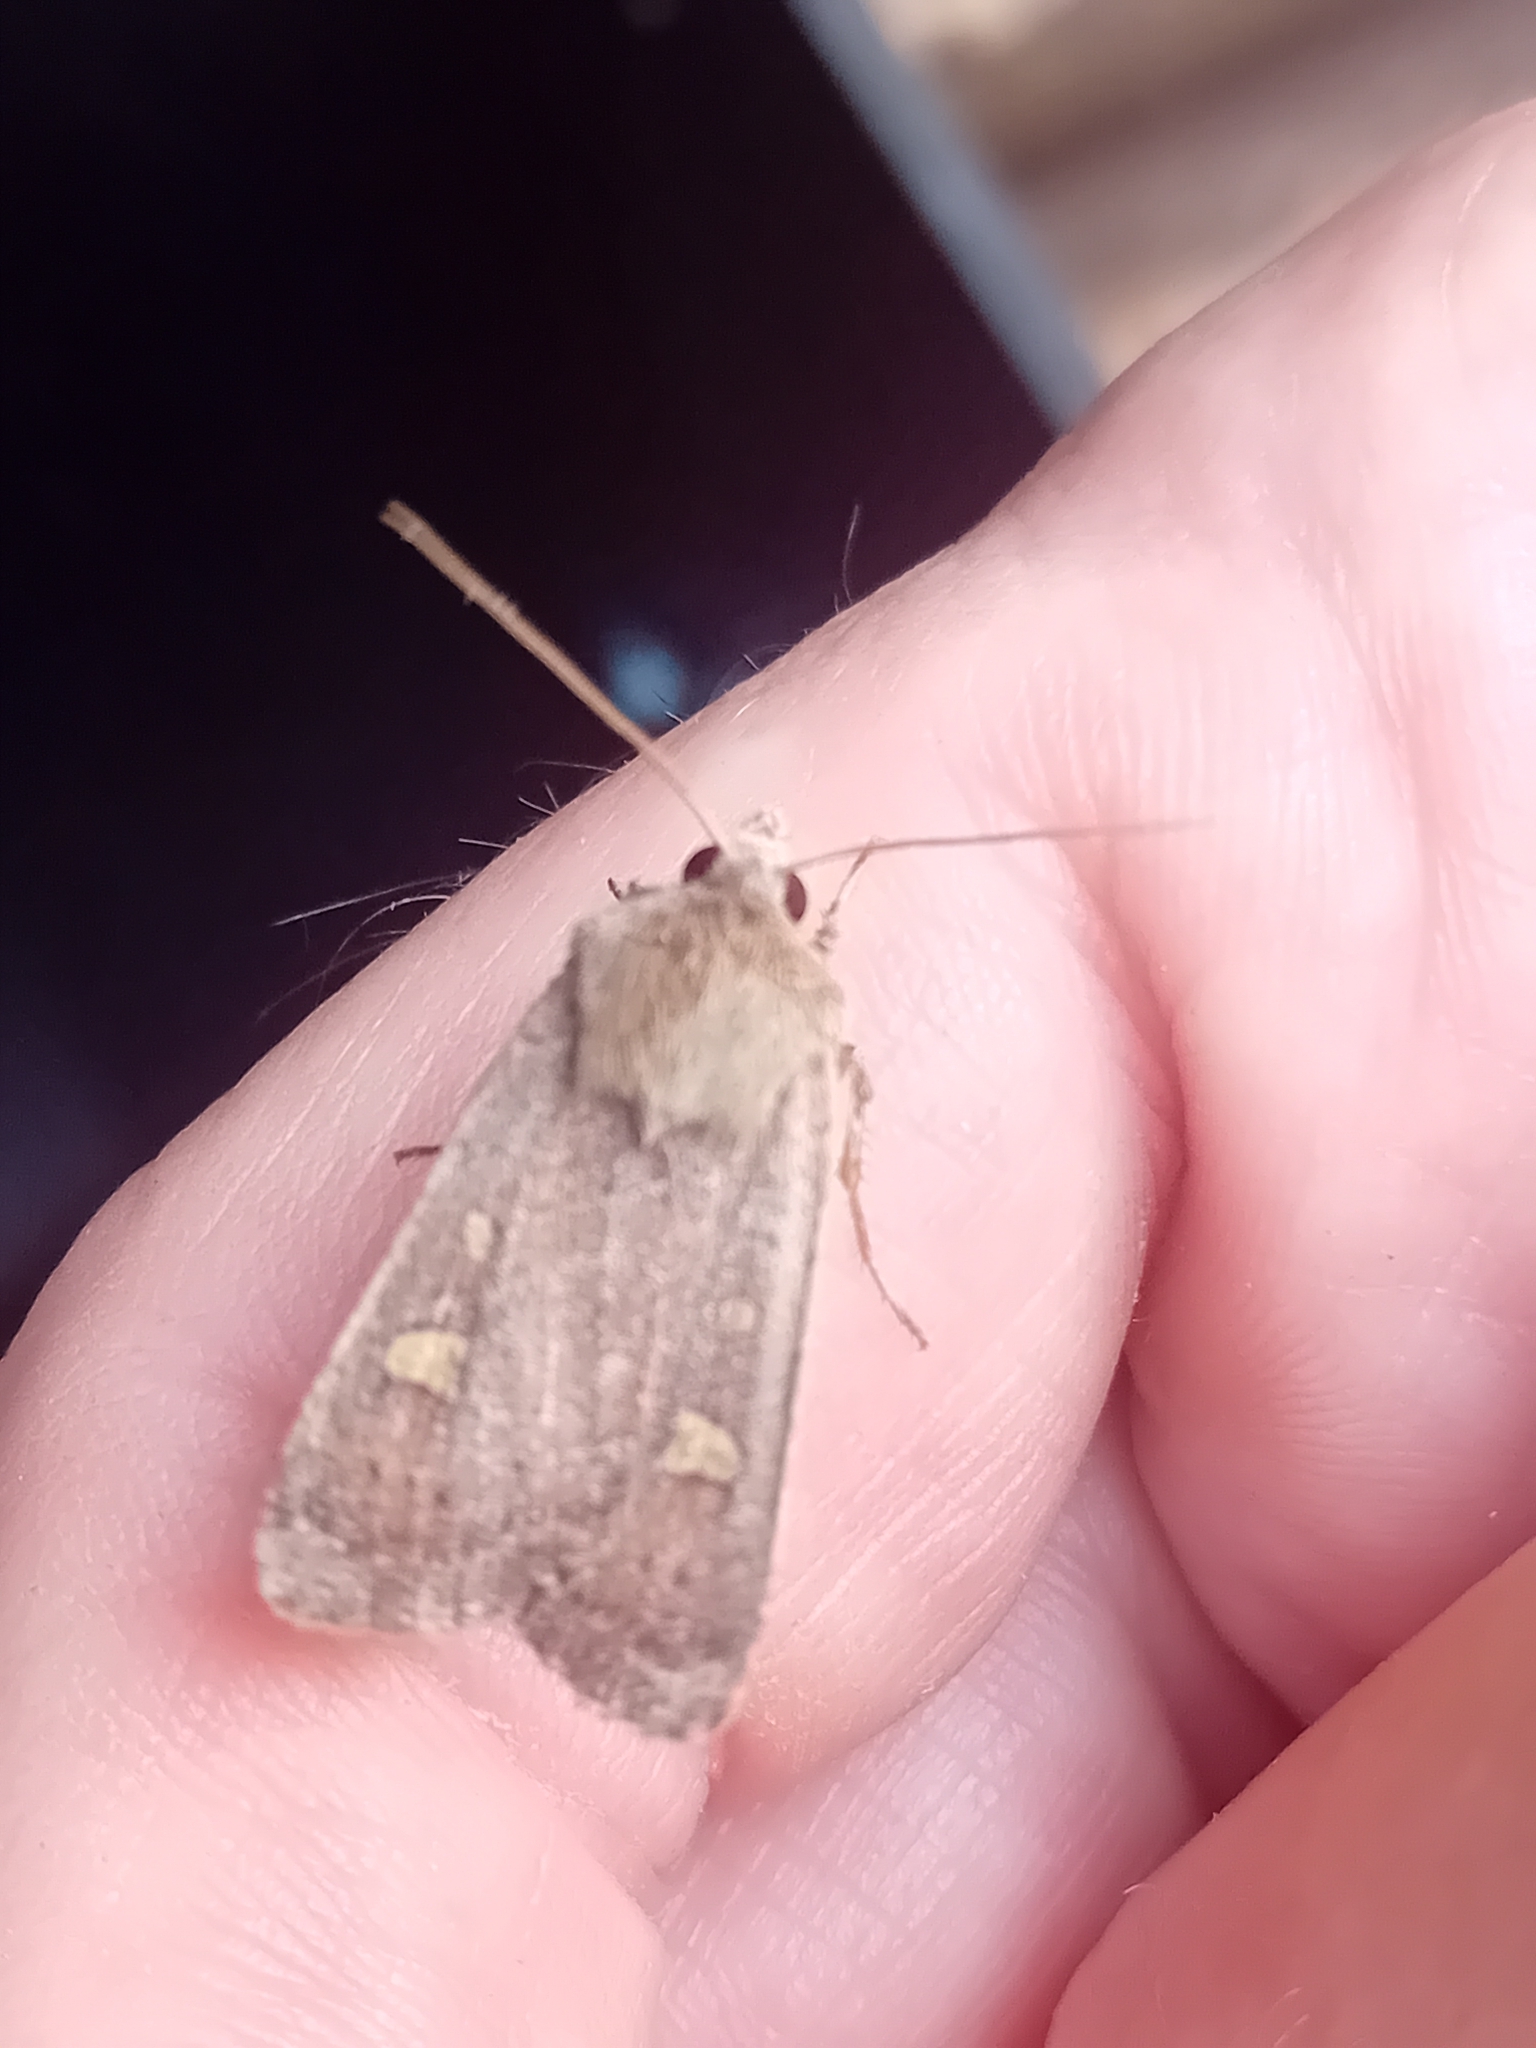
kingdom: Animalia
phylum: Arthropoda
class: Insecta
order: Lepidoptera
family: Noctuidae
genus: Xestia
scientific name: Xestia xanthographa
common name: Square-spot rustic
